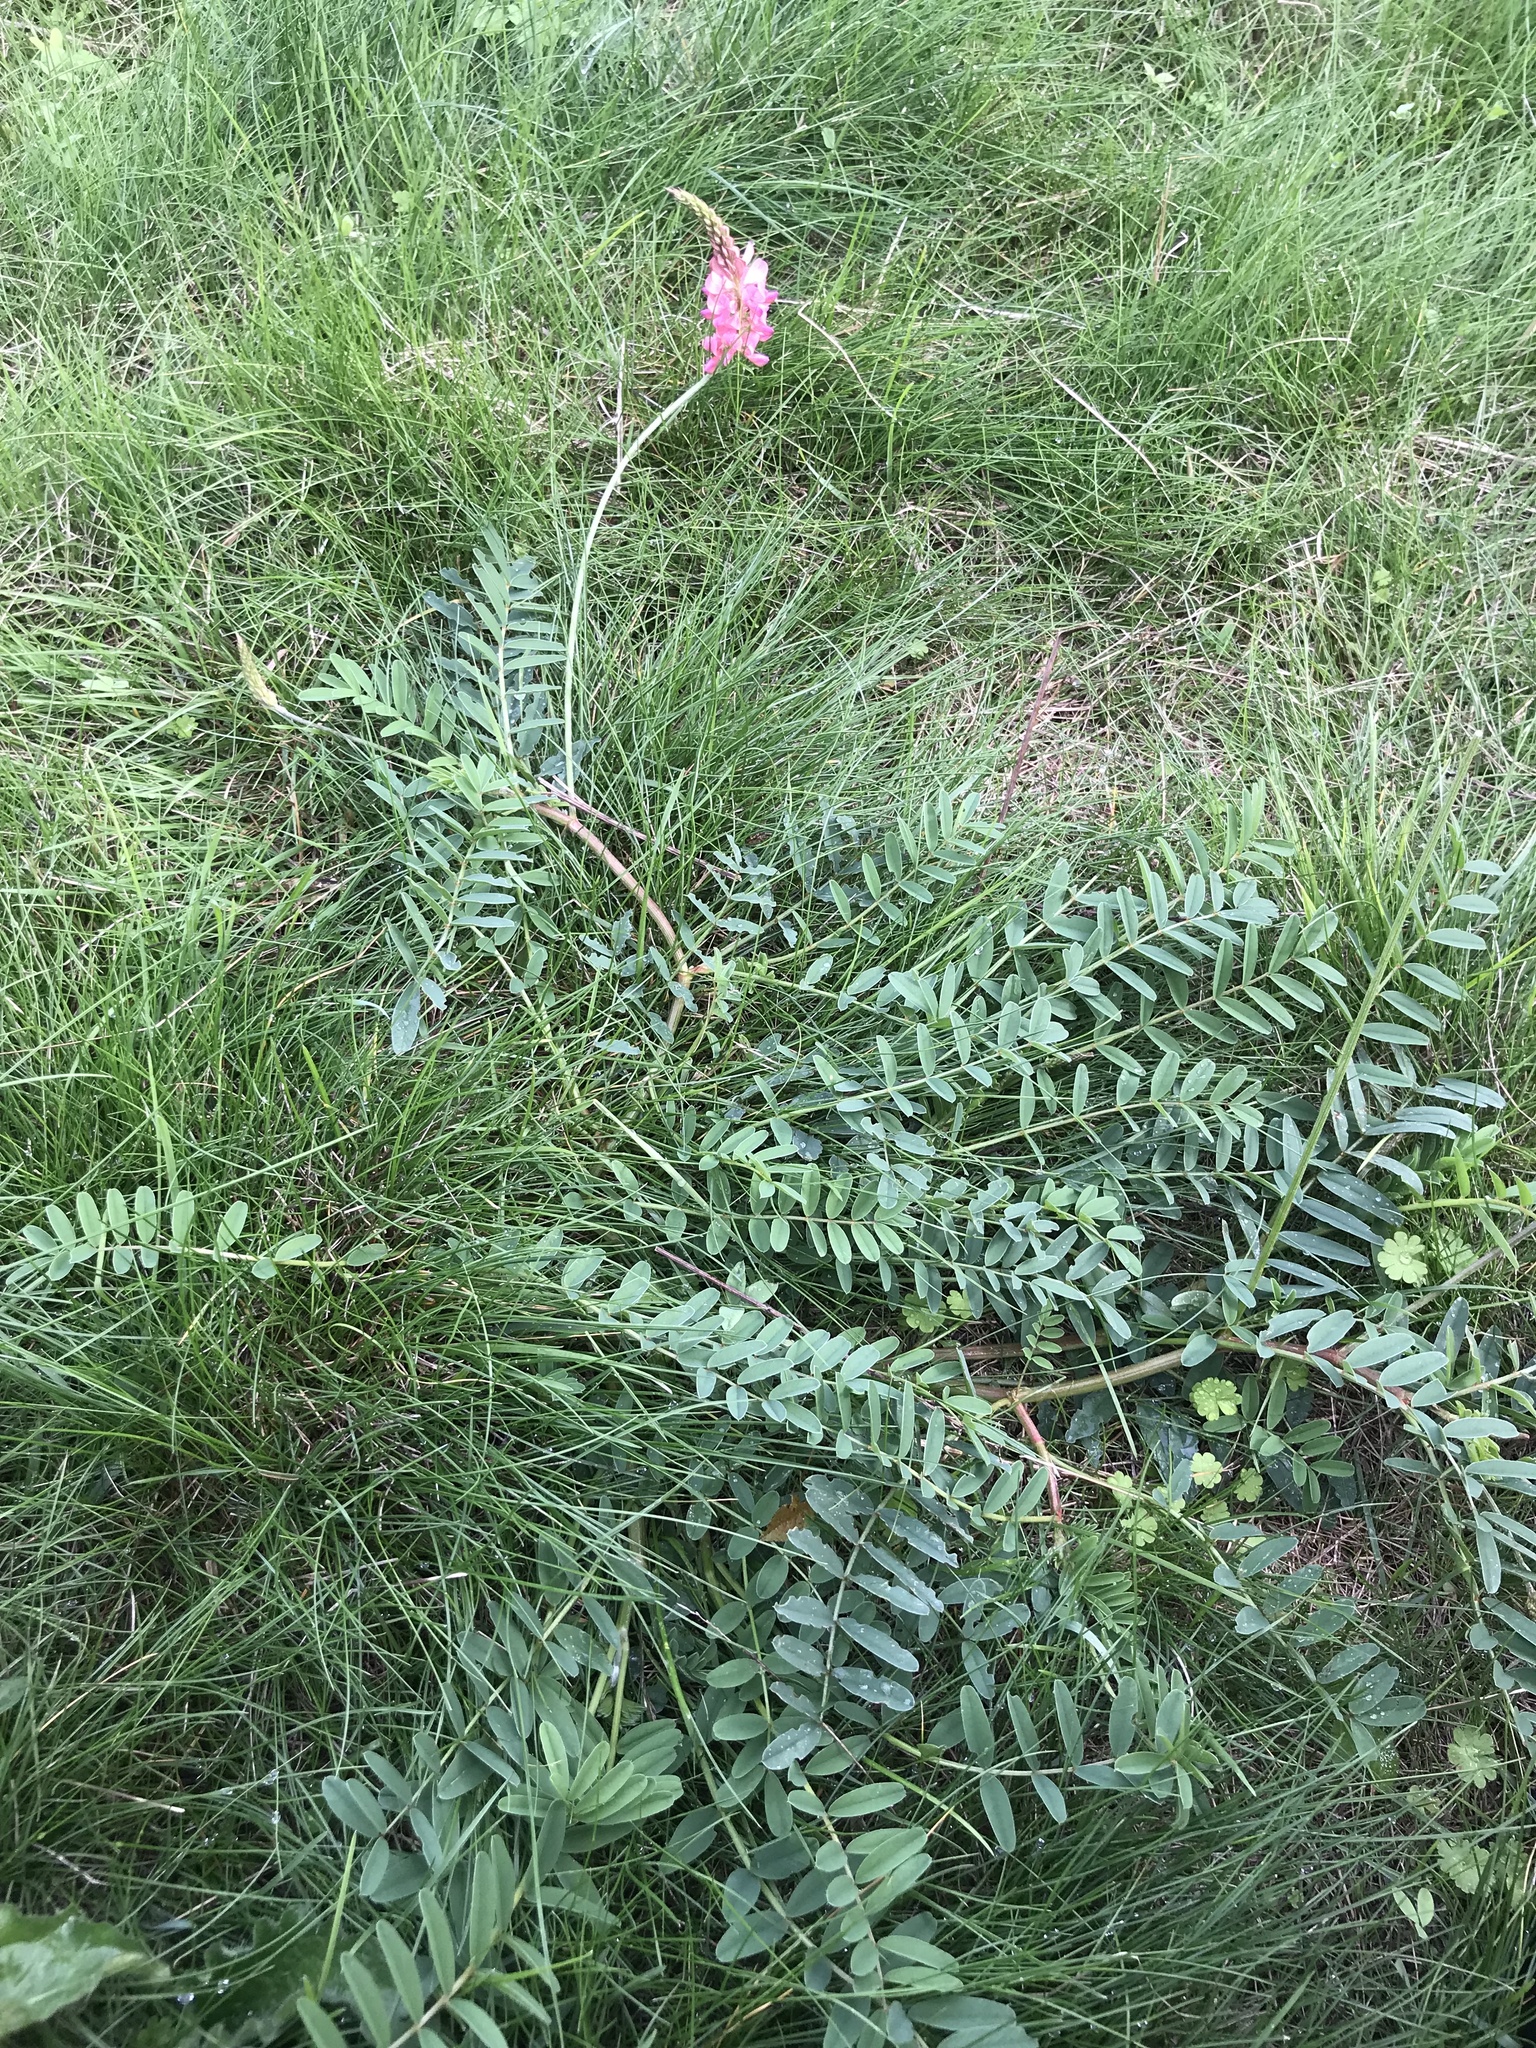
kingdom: Plantae
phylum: Tracheophyta
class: Magnoliopsida
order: Fabales
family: Fabaceae
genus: Onobrychis
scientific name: Onobrychis viciifolia
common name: Sainfoin
